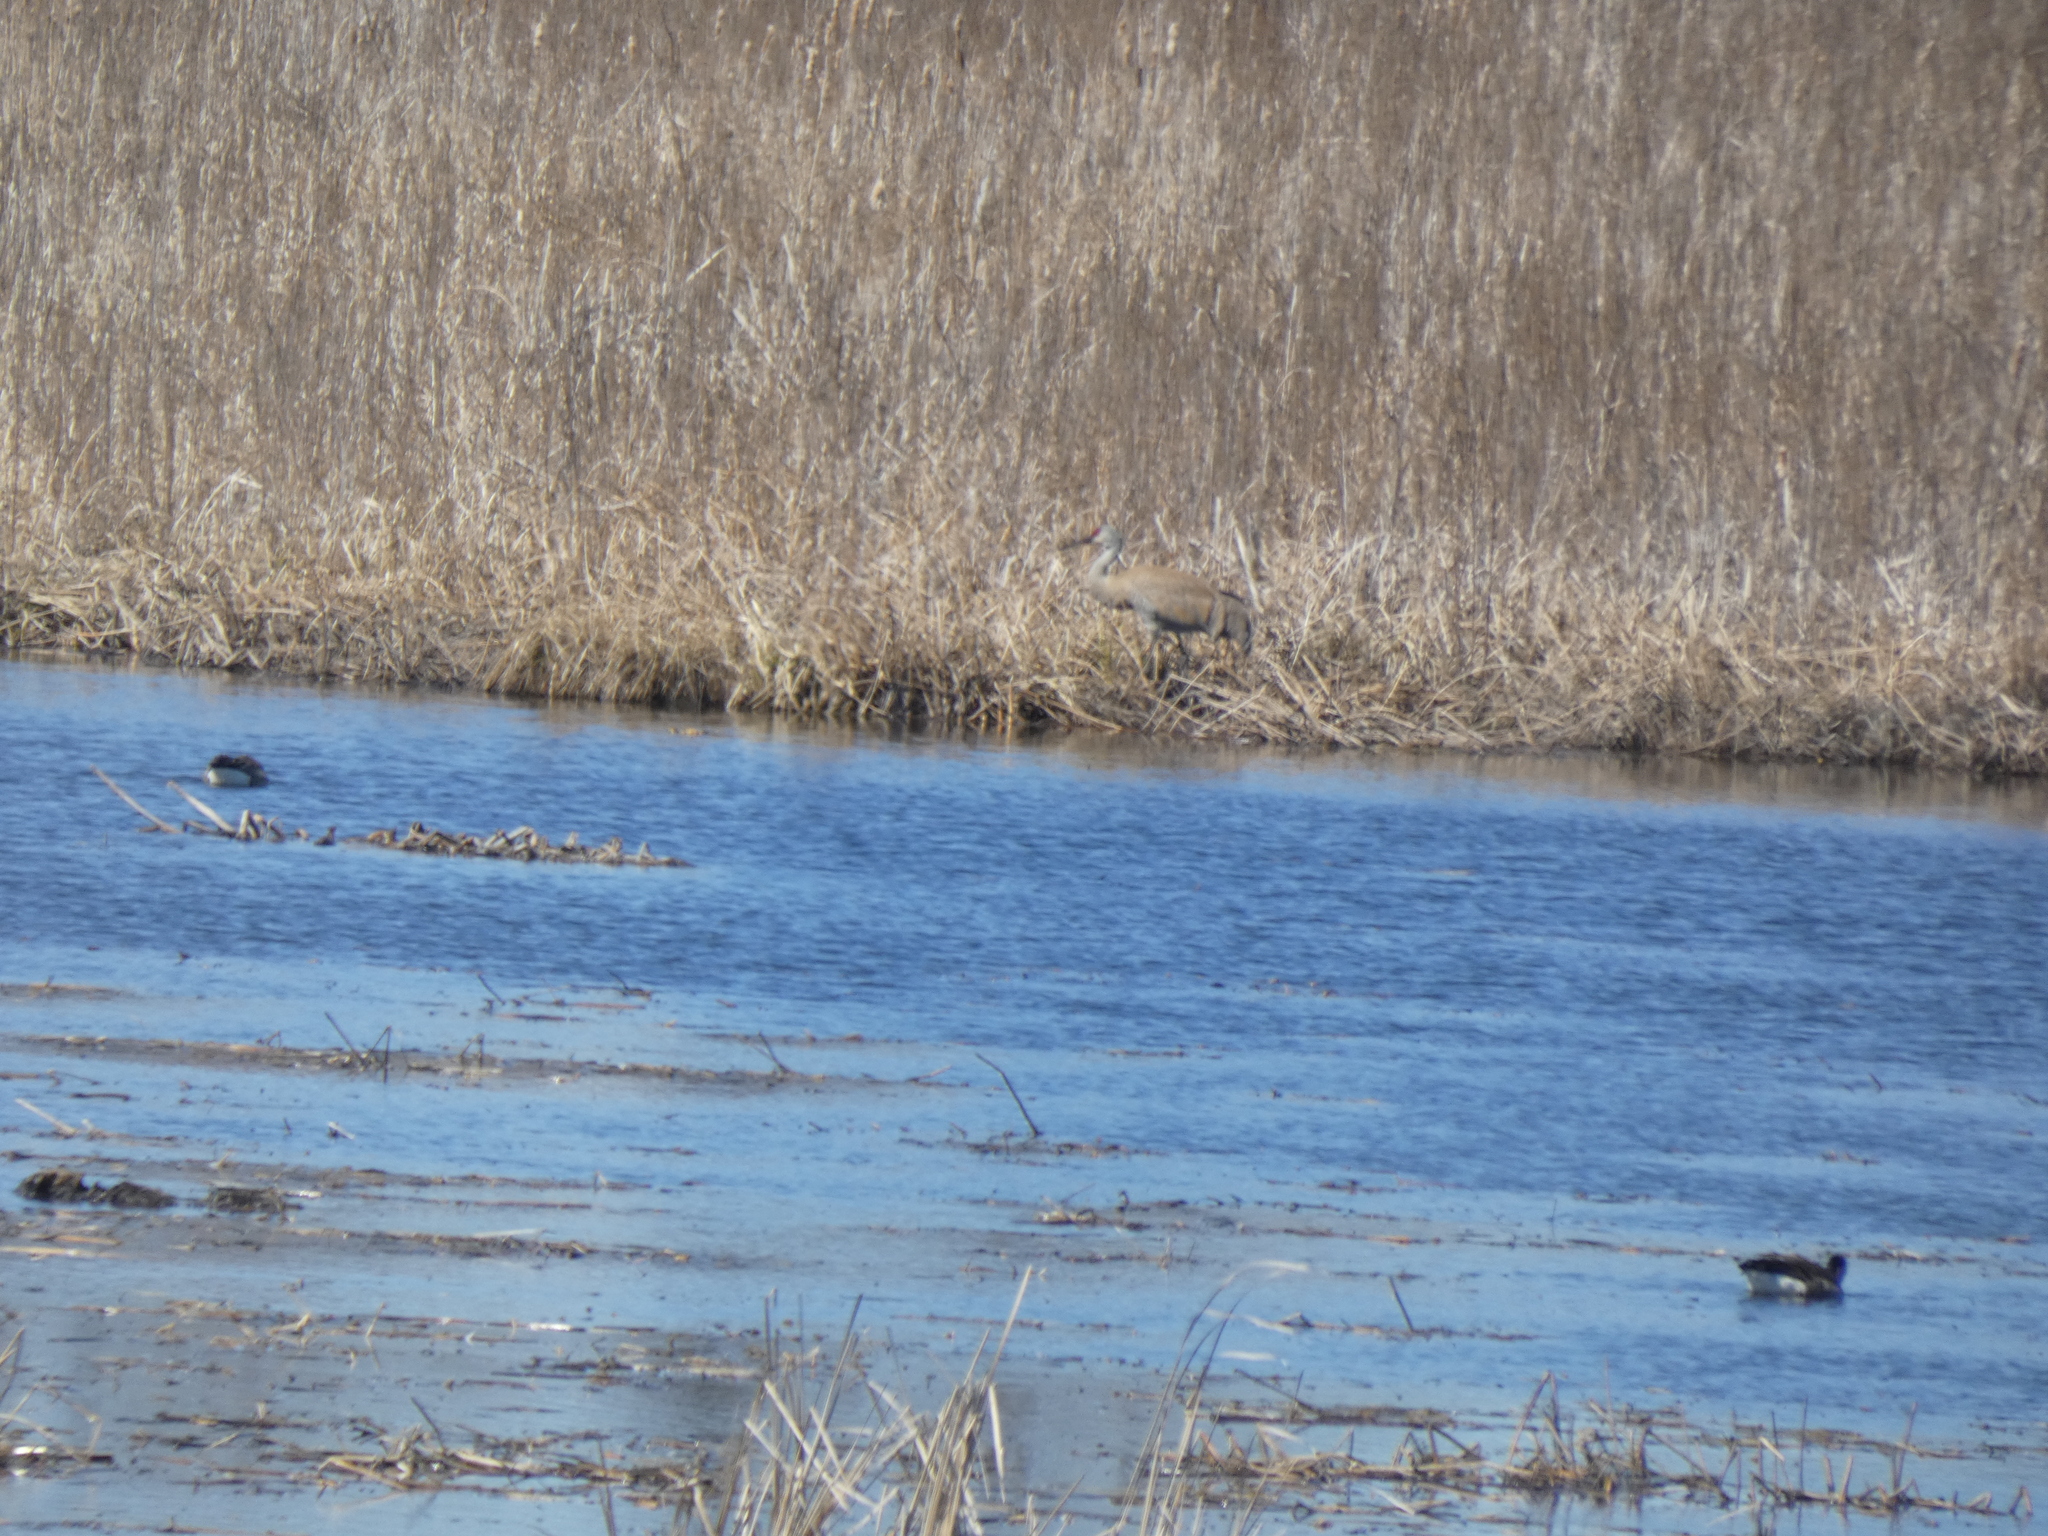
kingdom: Animalia
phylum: Chordata
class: Aves
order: Gruiformes
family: Gruidae
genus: Grus
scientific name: Grus canadensis
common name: Sandhill crane
